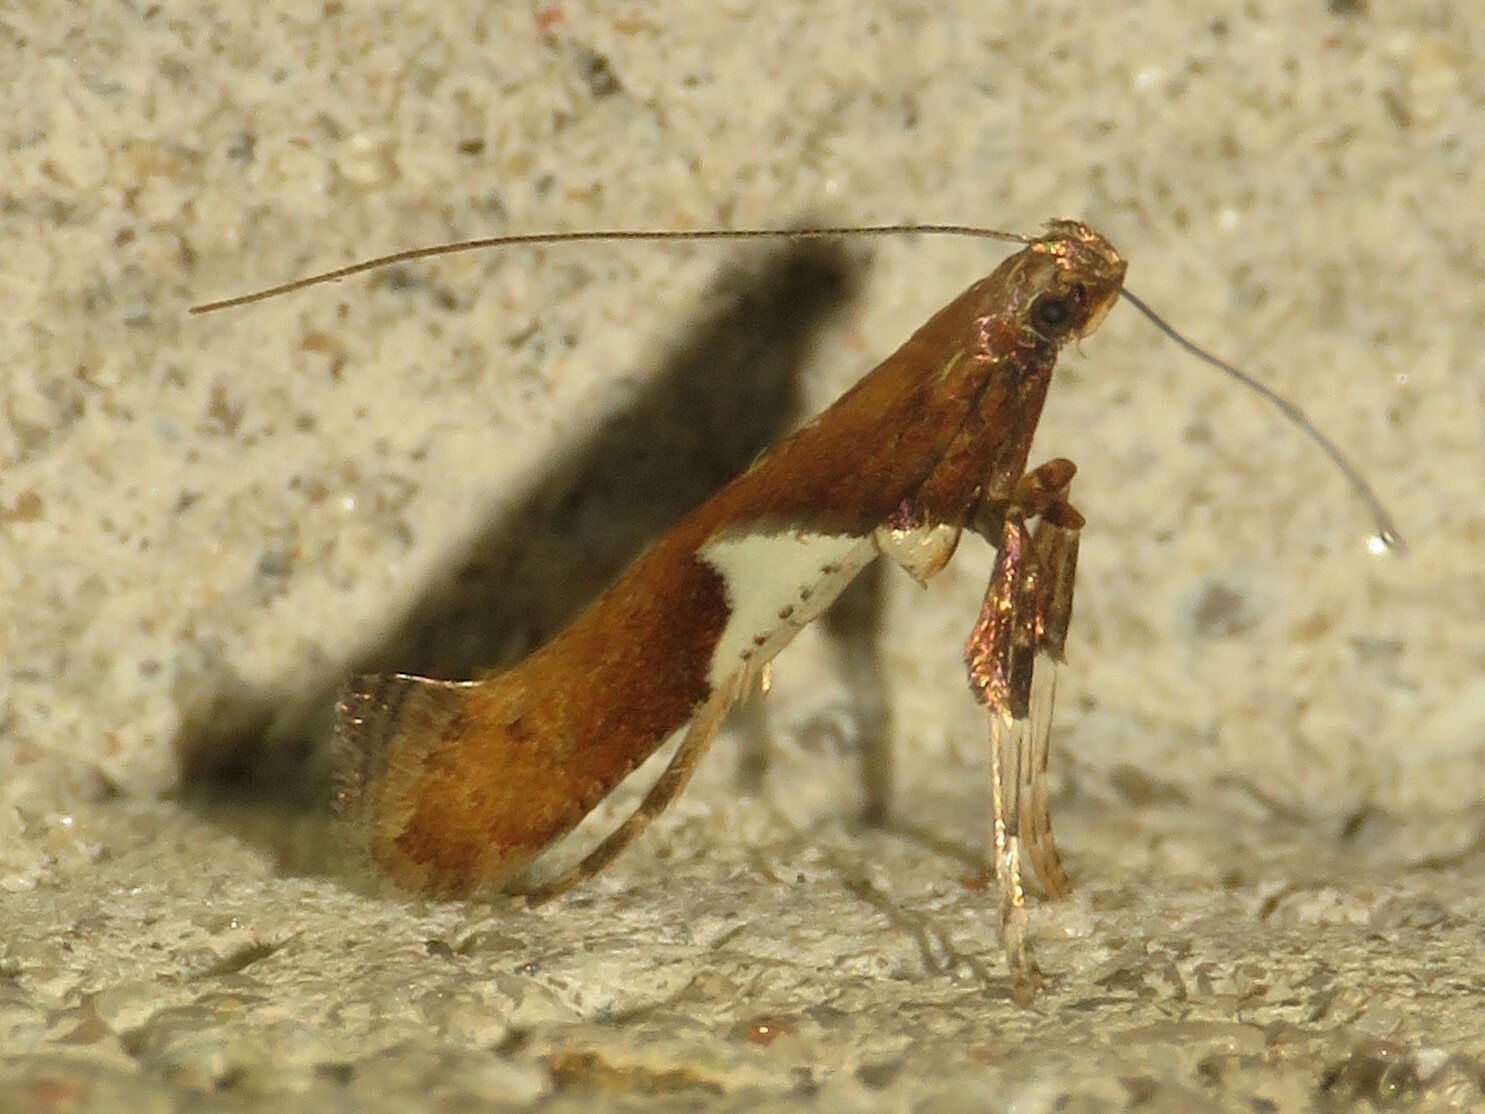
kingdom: Animalia
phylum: Arthropoda
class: Insecta
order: Lepidoptera
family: Gracillariidae
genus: Caloptilia
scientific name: Caloptilia stigmatella
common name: White-triangle slender
